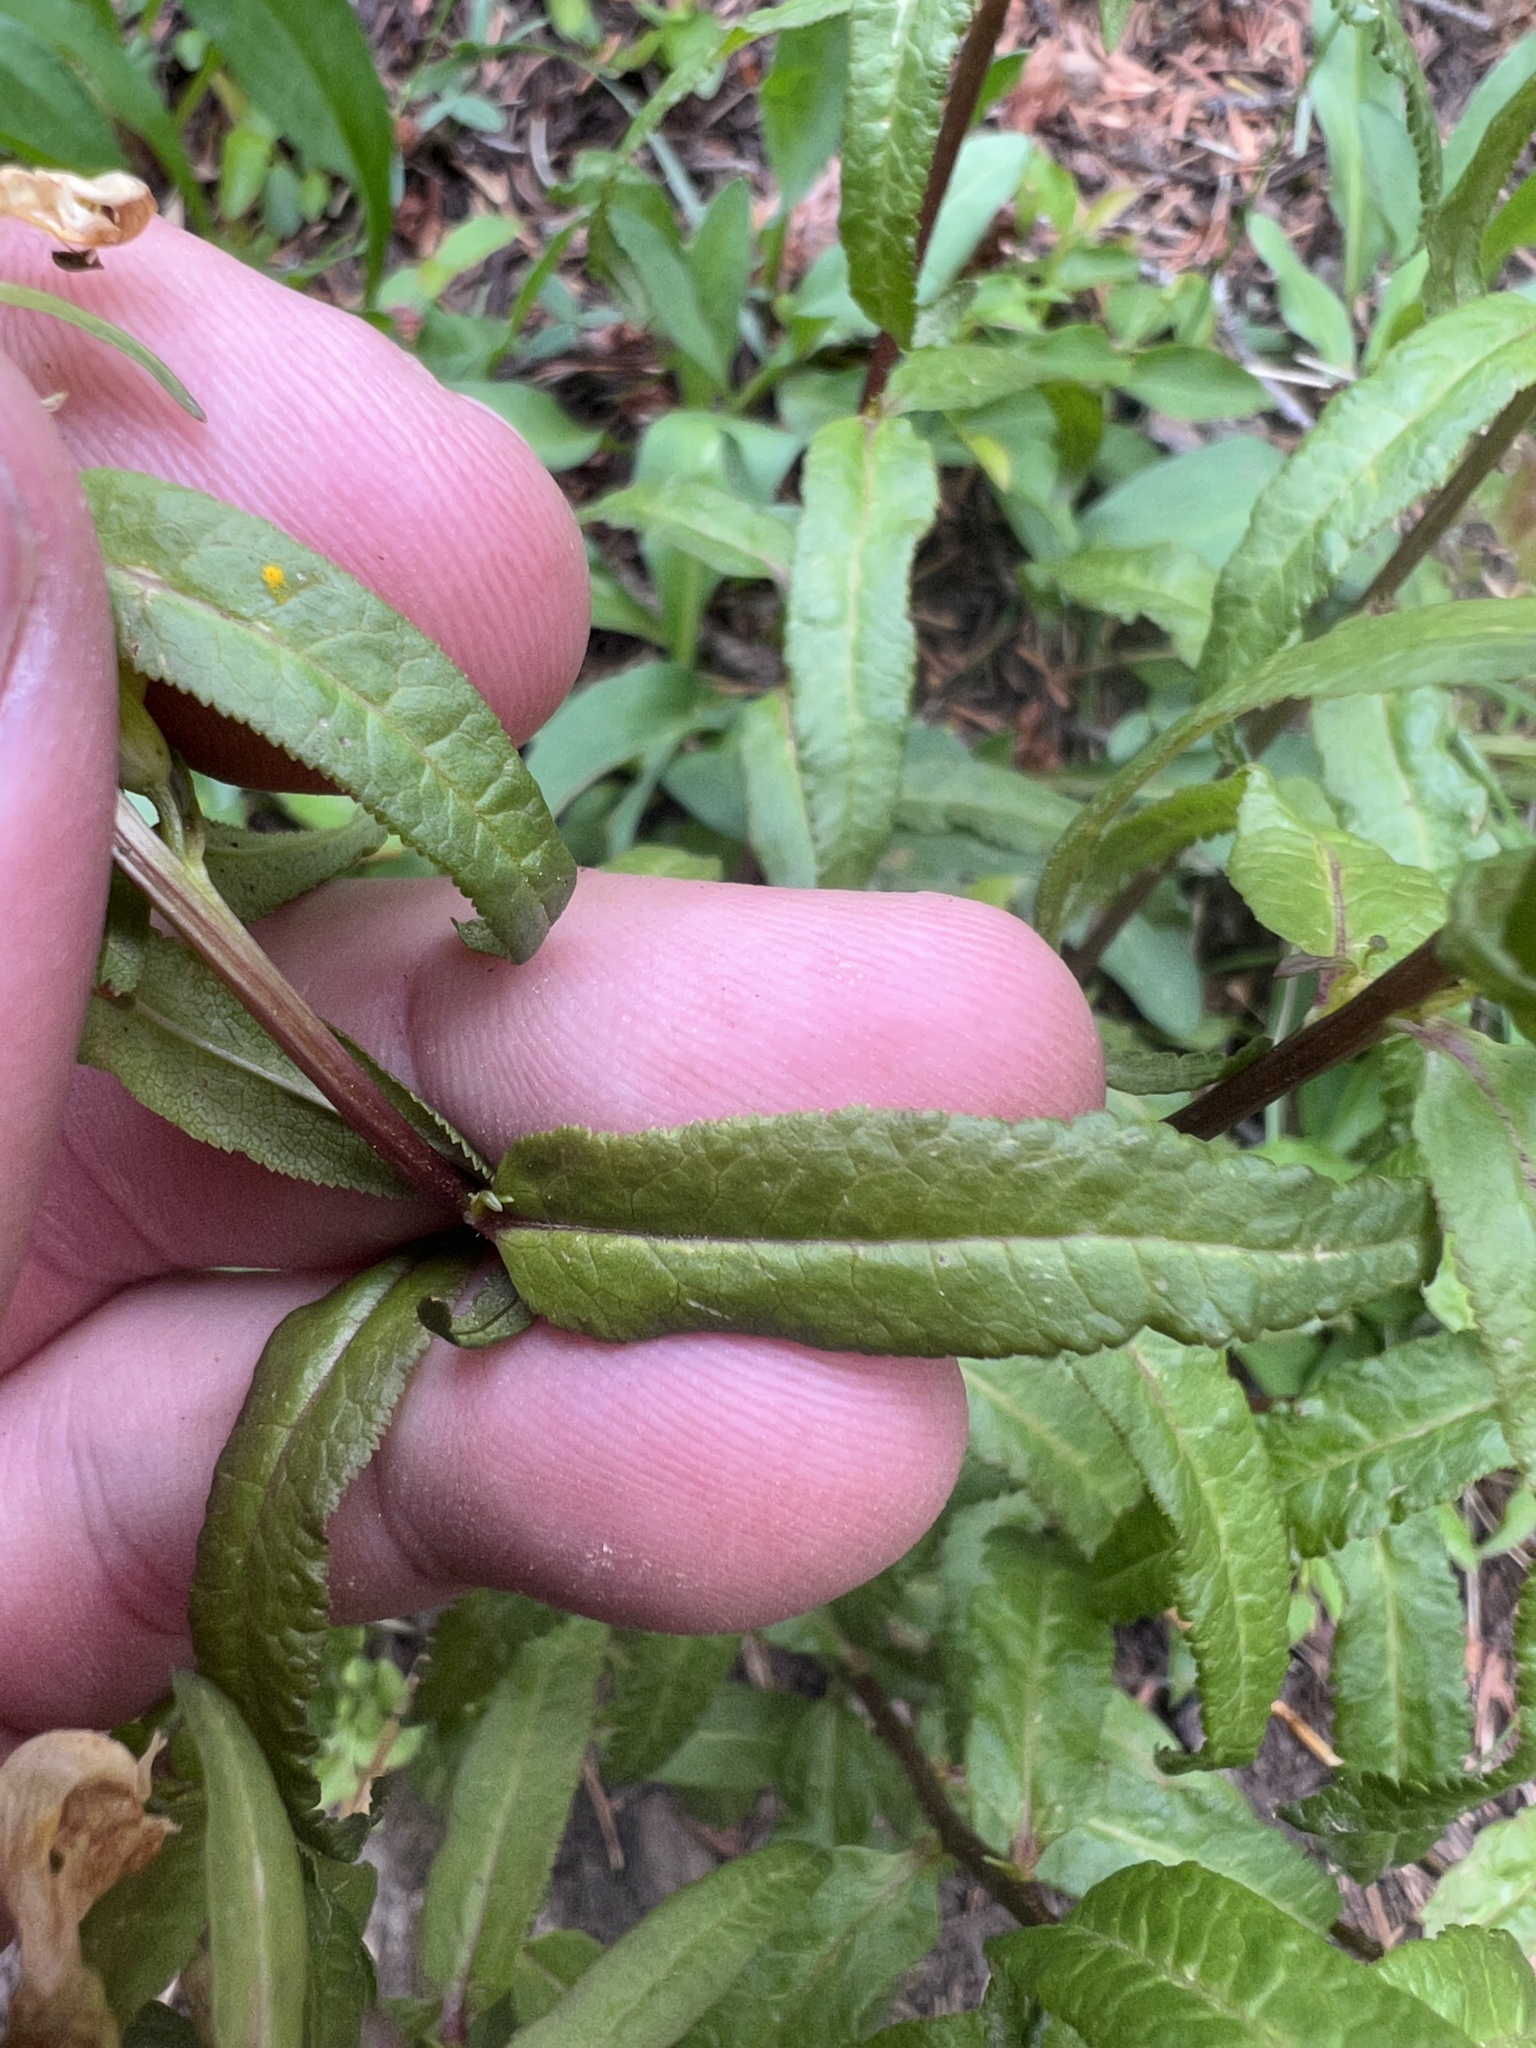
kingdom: Plantae
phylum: Tracheophyta
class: Magnoliopsida
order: Lamiales
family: Orobanchaceae
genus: Pedicularis
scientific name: Pedicularis racemosa
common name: Leafy lousewort
